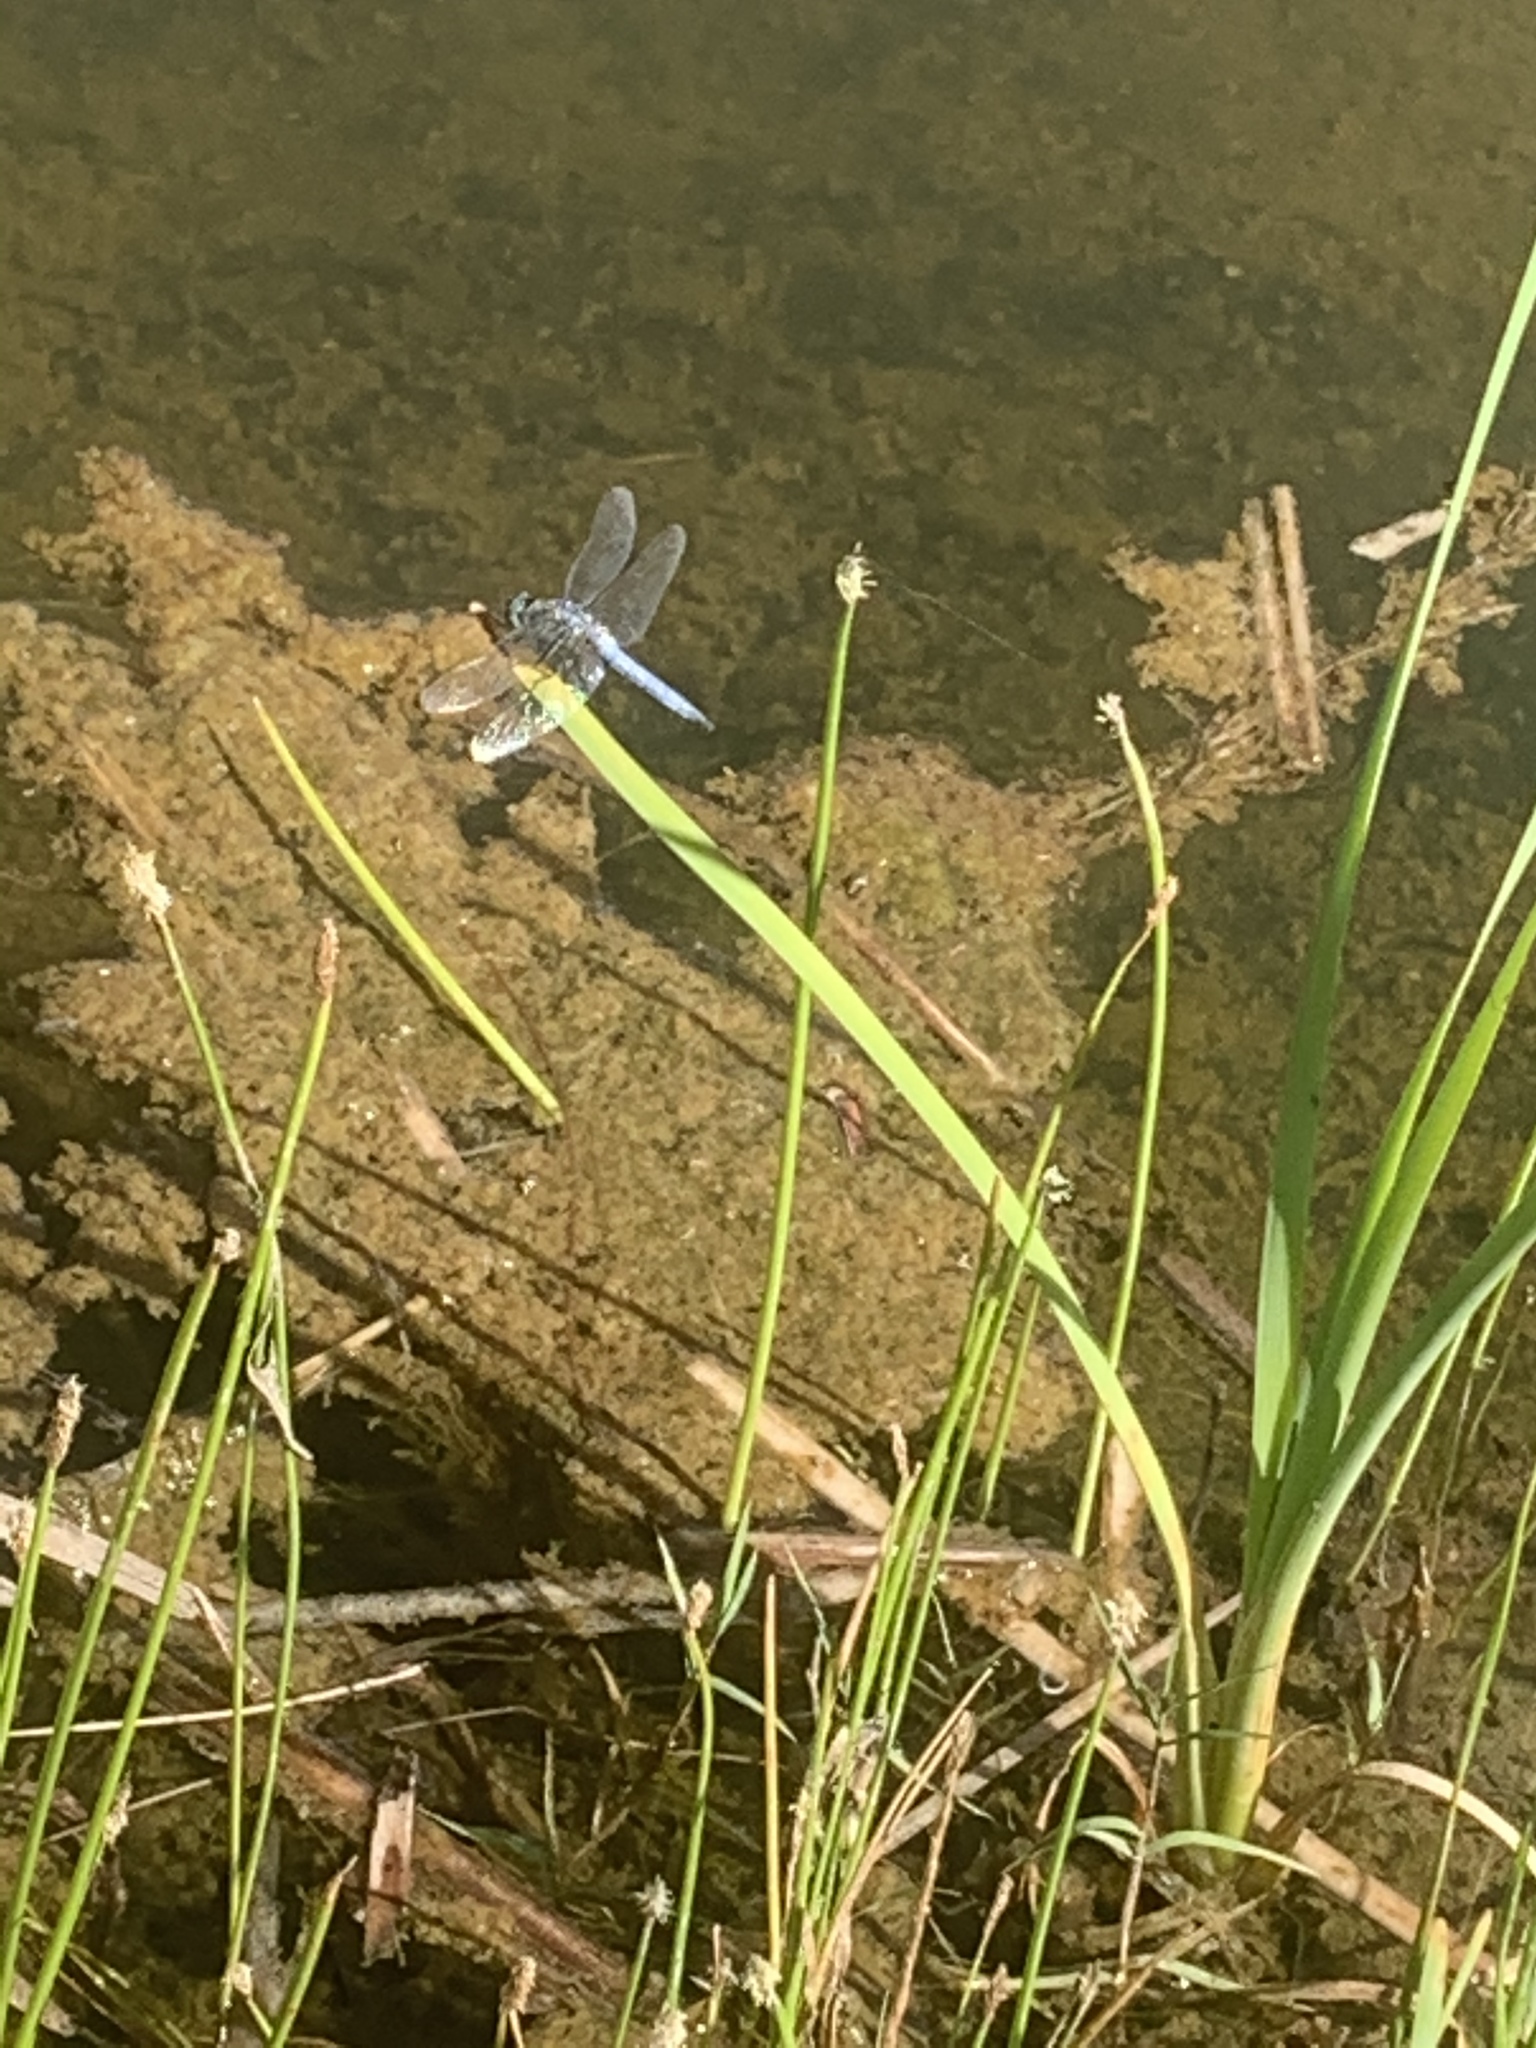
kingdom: Animalia
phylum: Arthropoda
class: Insecta
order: Odonata
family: Libellulidae
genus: Pachydiplax
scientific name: Pachydiplax longipennis
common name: Blue dasher
